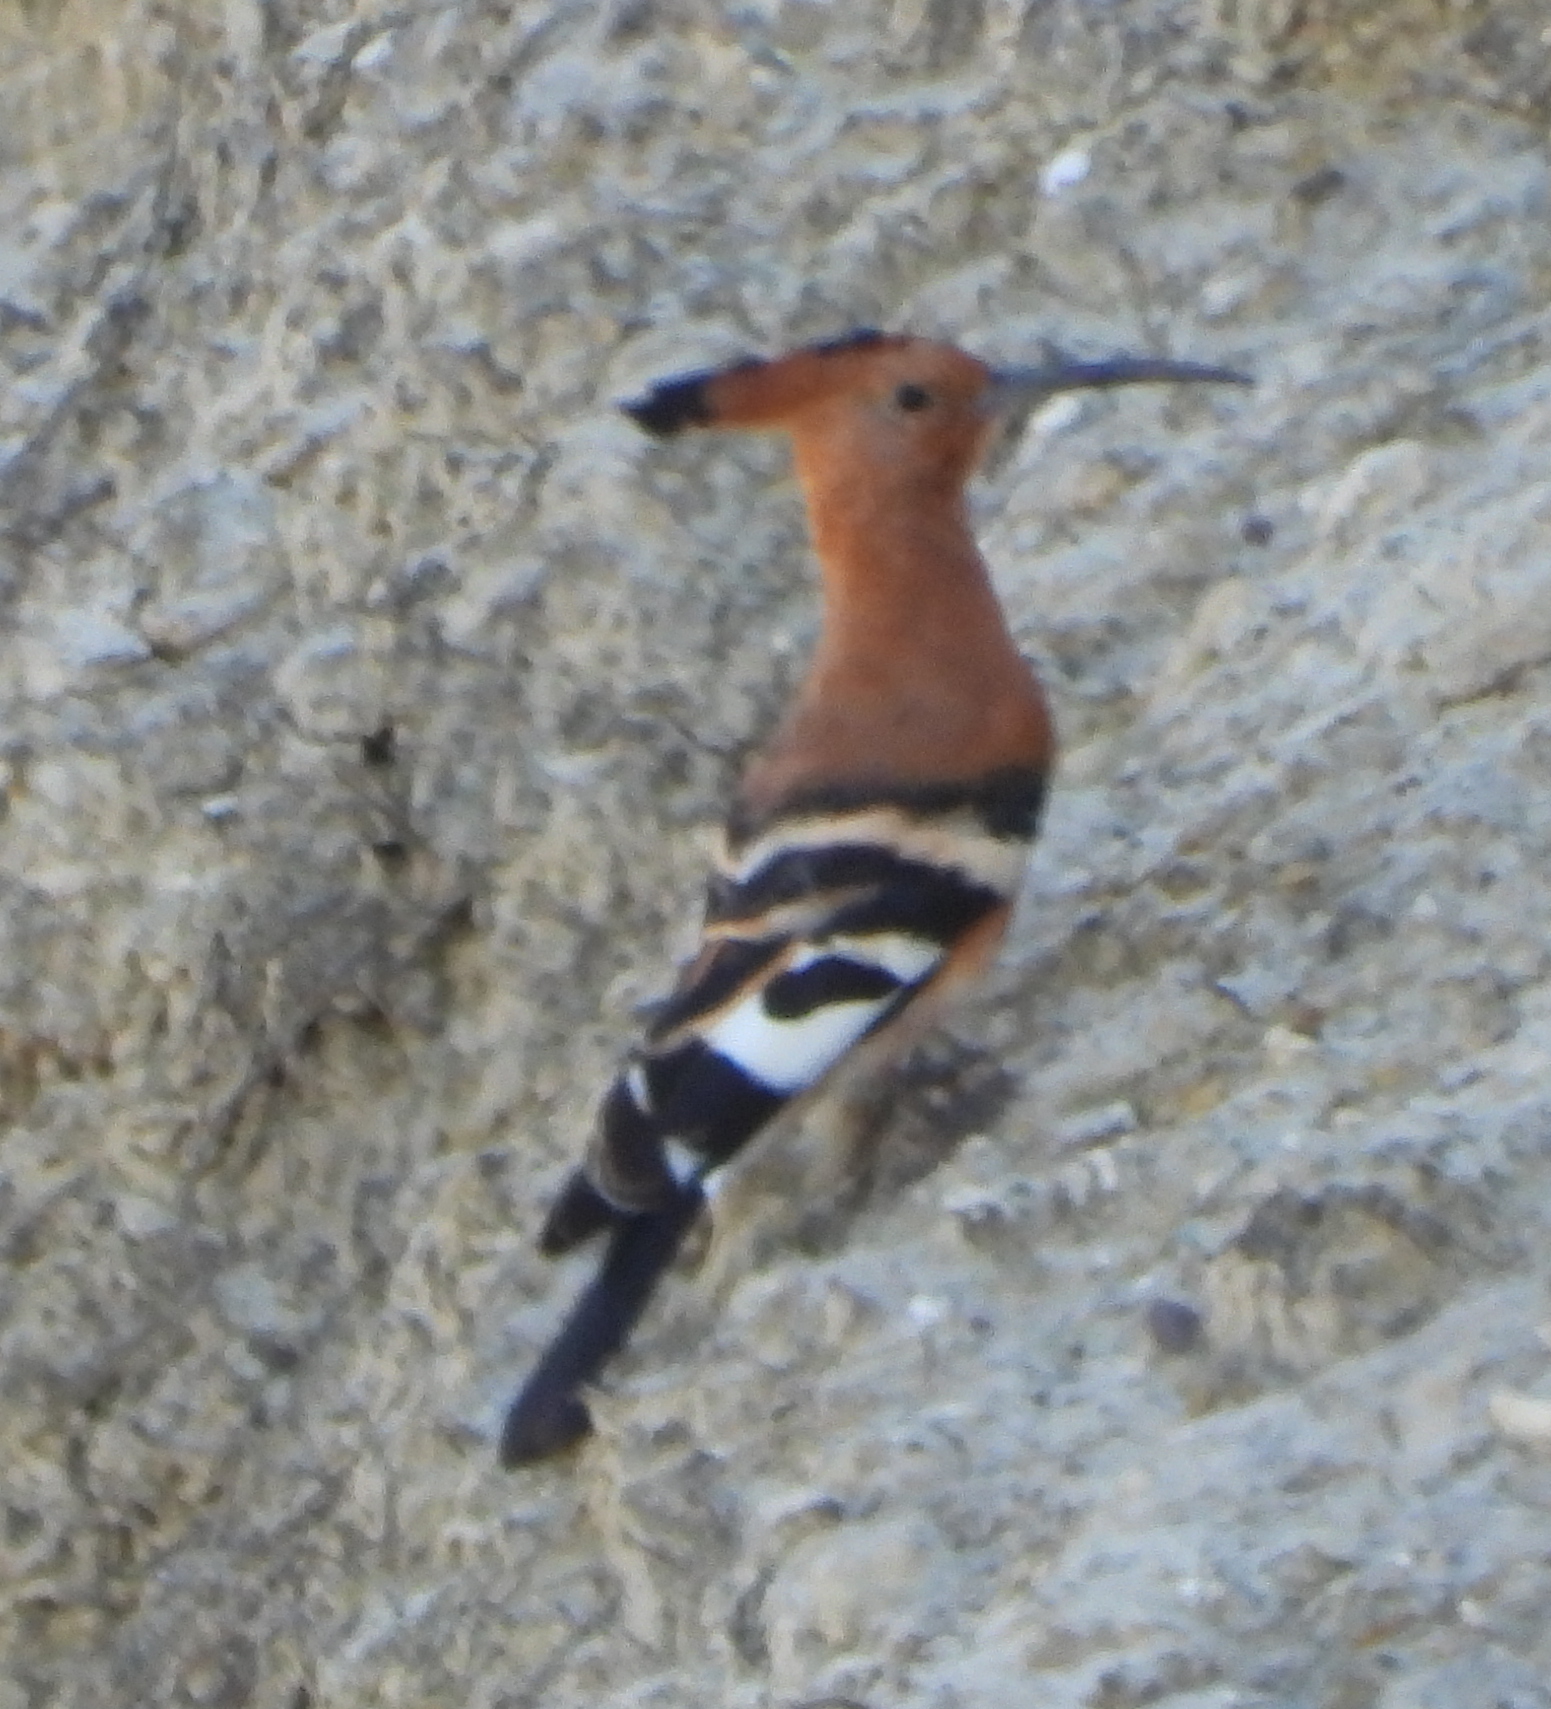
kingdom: Animalia
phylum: Chordata
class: Aves
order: Bucerotiformes
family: Upupidae
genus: Upupa
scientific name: Upupa africana
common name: African hoopoe
